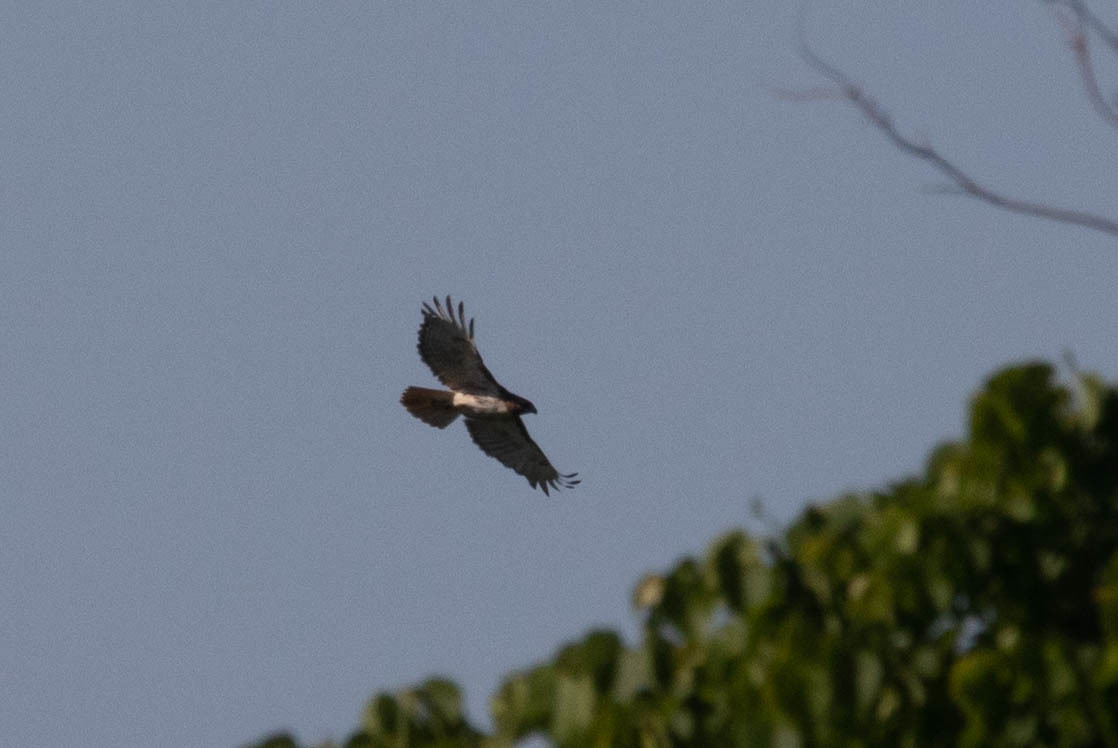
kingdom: Animalia
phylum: Chordata
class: Aves
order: Accipitriformes
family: Accipitridae
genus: Buteo
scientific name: Buteo jamaicensis
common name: Red-tailed hawk
